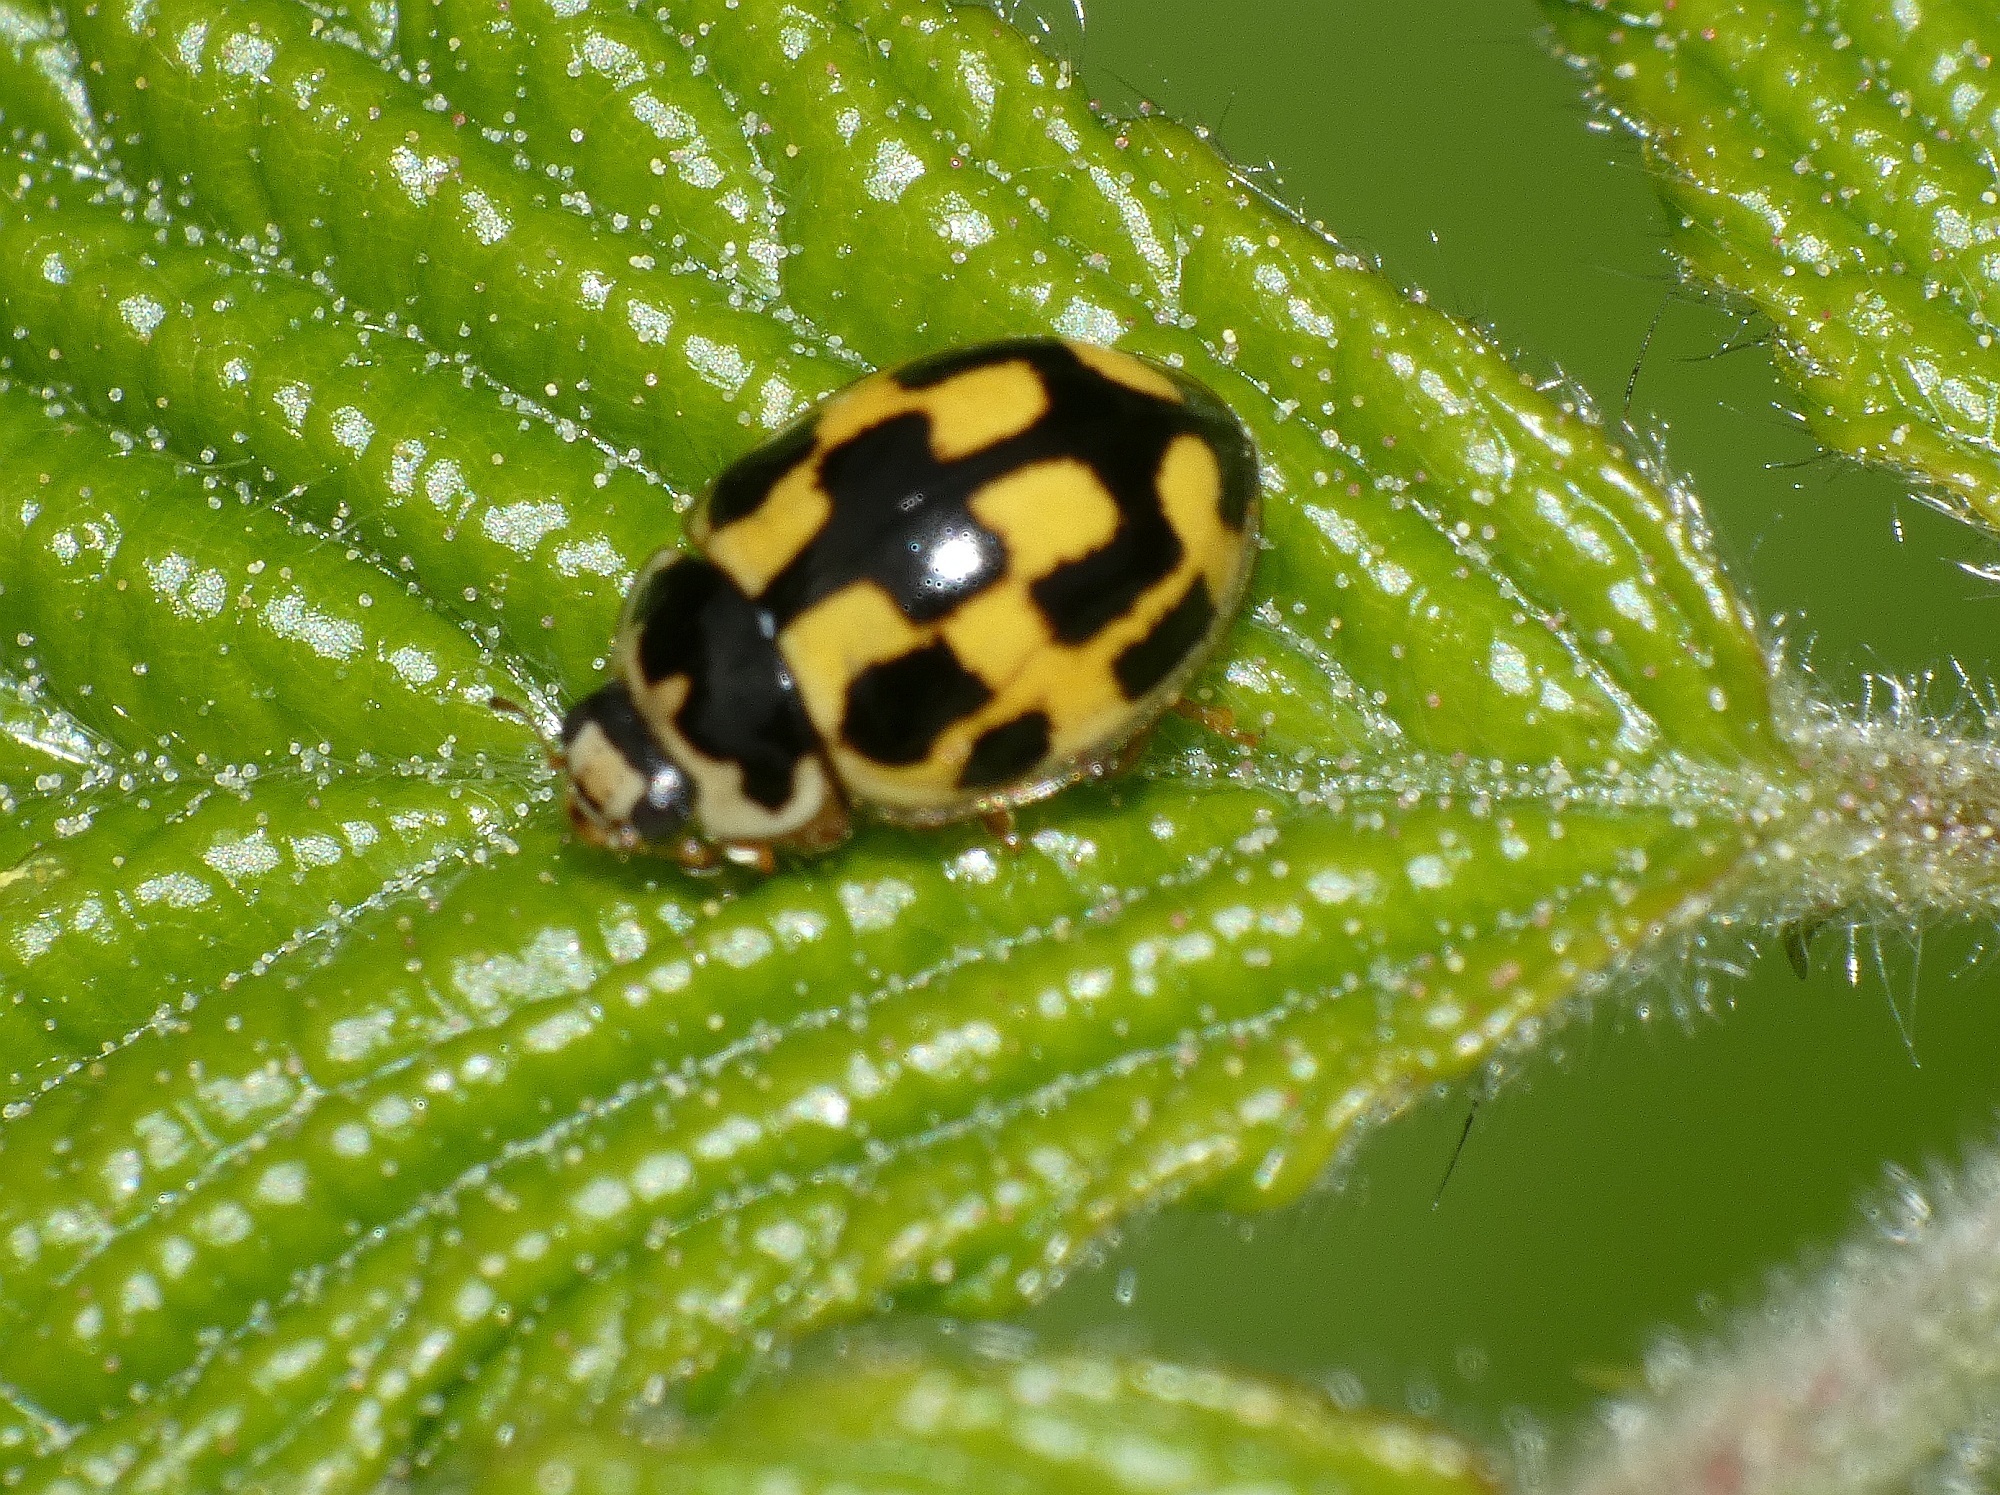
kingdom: Animalia
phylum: Arthropoda
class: Insecta
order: Coleoptera
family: Coccinellidae
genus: Propylaea
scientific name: Propylaea quatuordecimpunctata
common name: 14-spotted ladybird beetle
